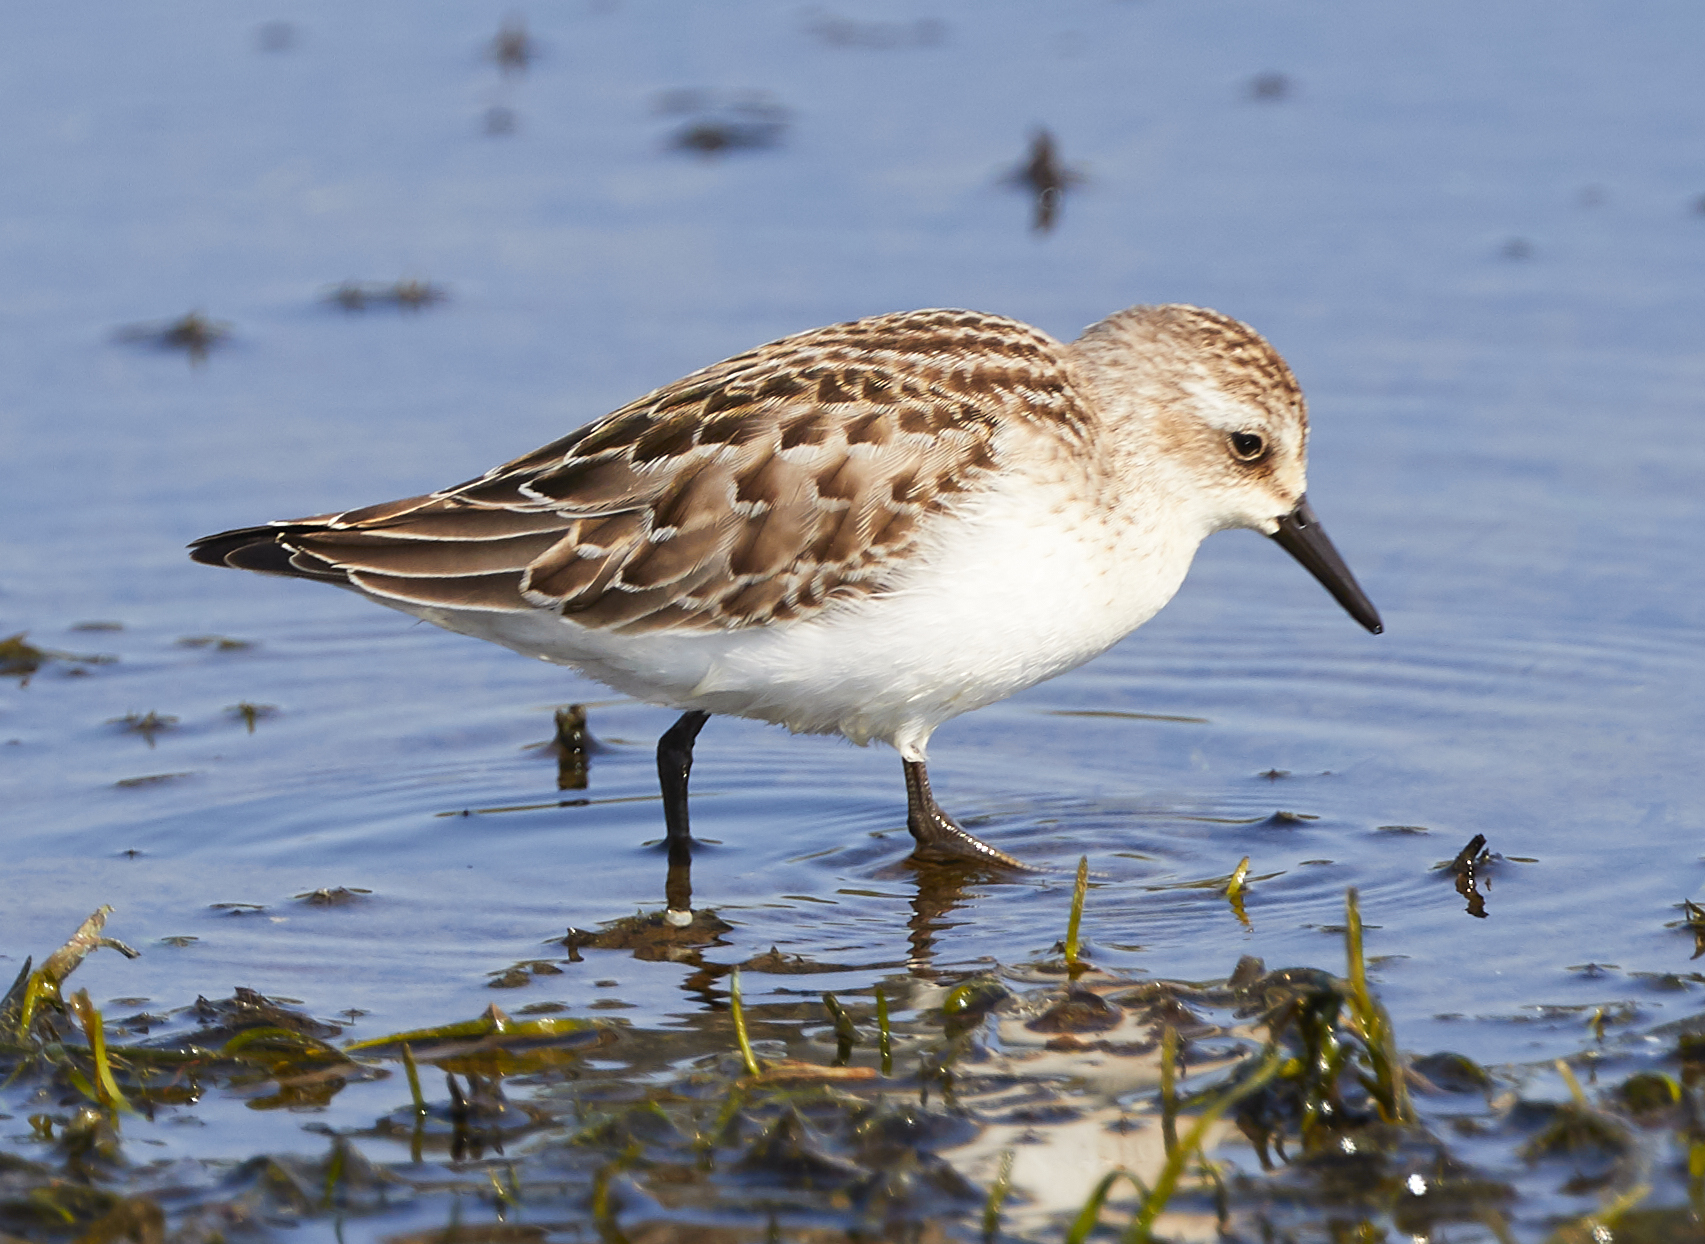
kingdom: Animalia
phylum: Chordata
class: Aves
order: Charadriiformes
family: Scolopacidae
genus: Calidris
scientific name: Calidris pusilla
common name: Semipalmated sandpiper
